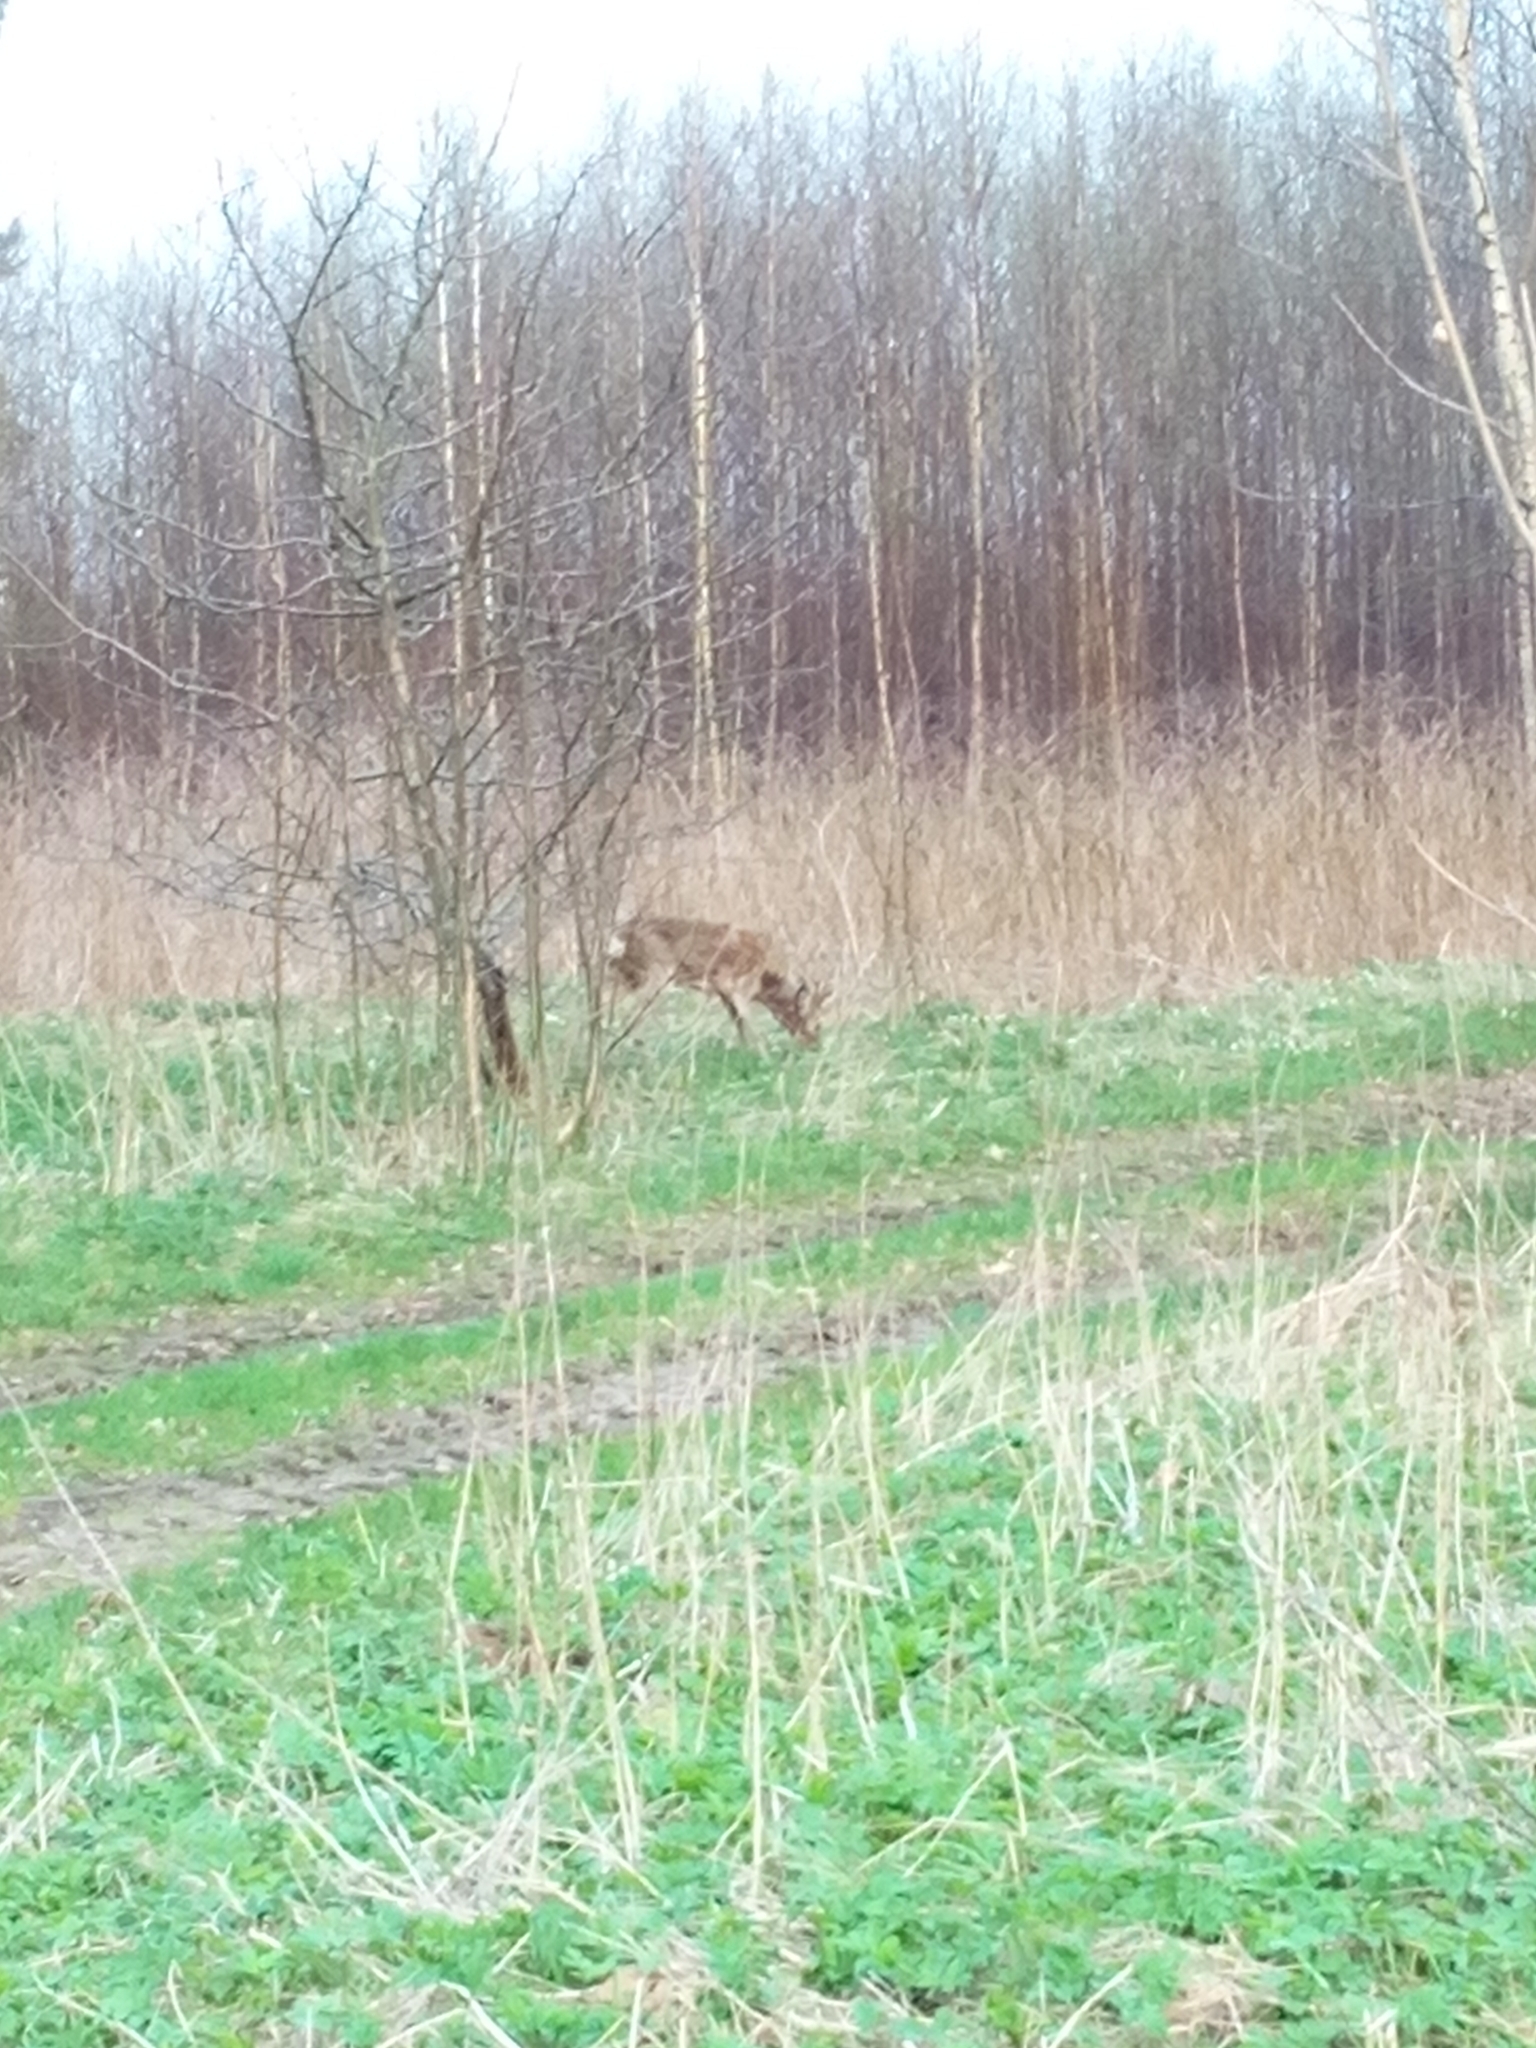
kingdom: Animalia
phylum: Chordata
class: Mammalia
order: Artiodactyla
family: Cervidae
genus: Capreolus
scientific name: Capreolus capreolus
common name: Western roe deer
